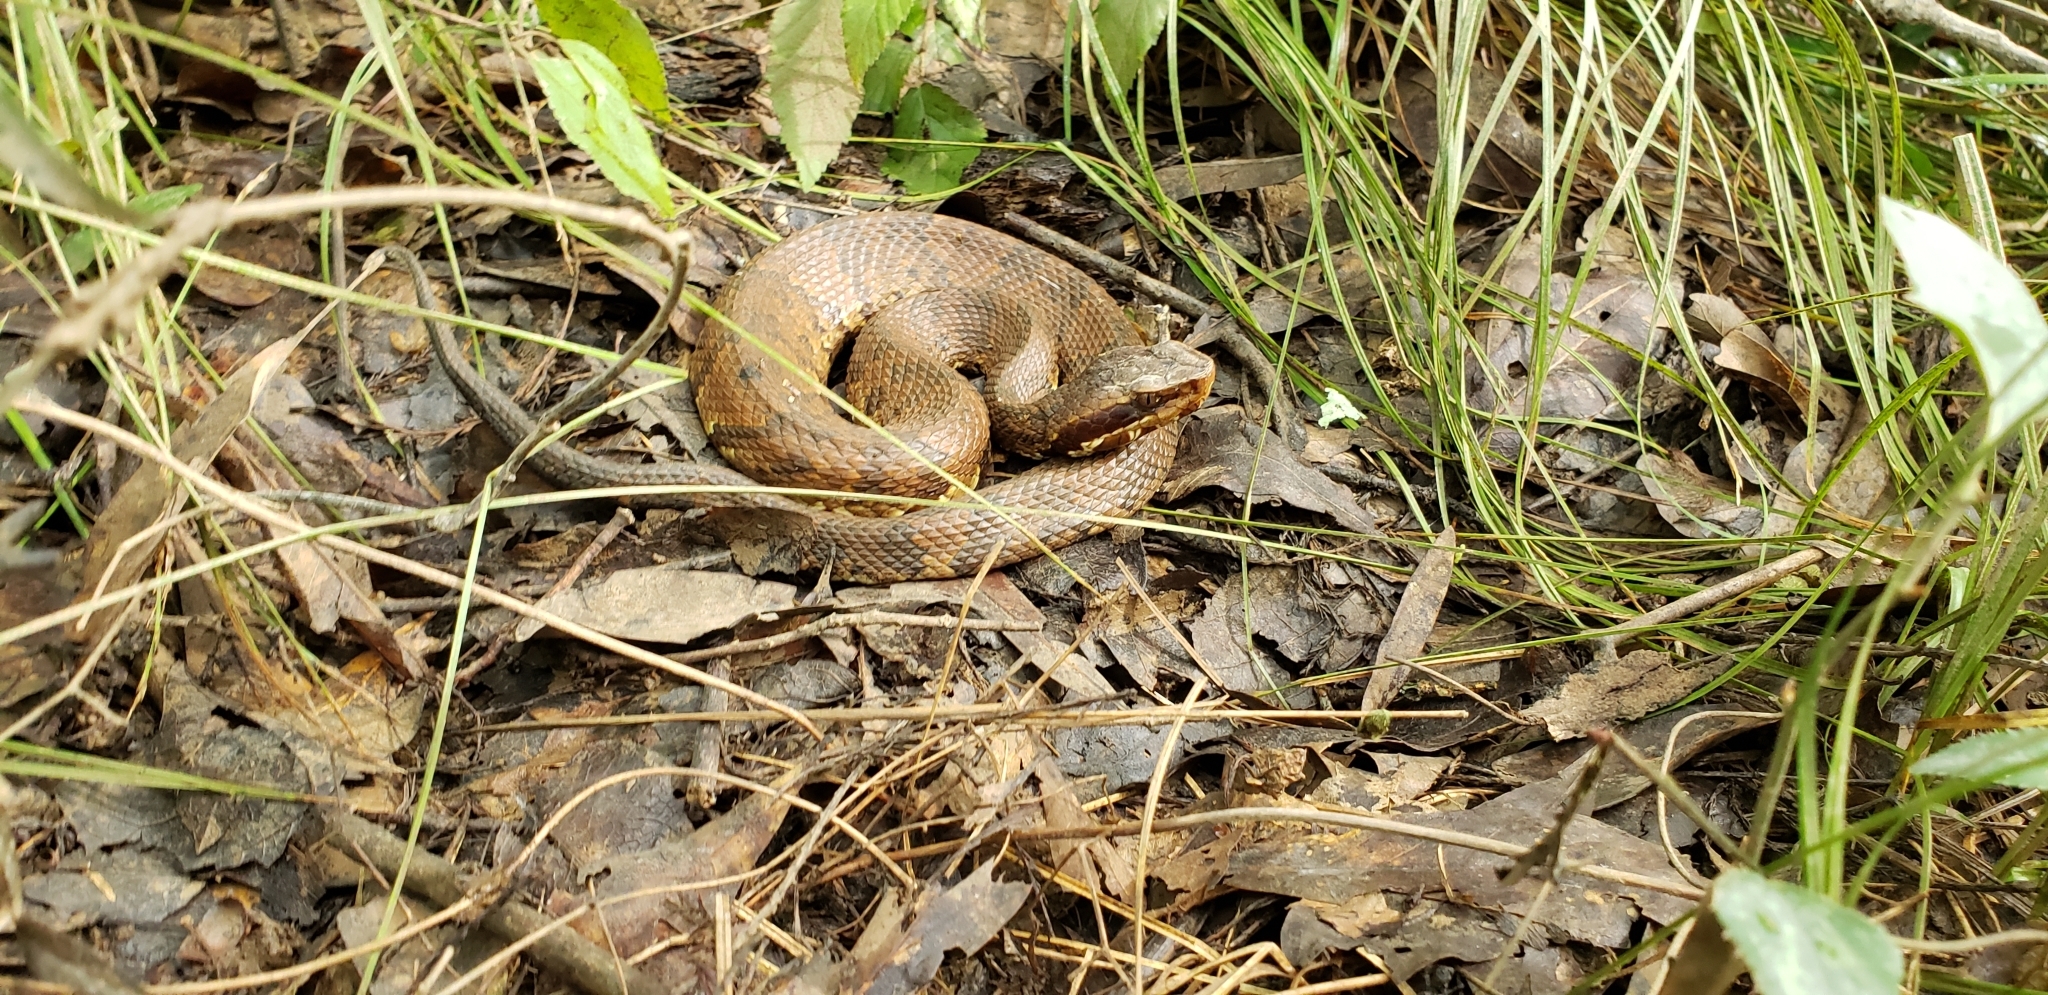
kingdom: Animalia
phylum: Chordata
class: Squamata
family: Viperidae
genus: Agkistrodon
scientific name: Agkistrodon piscivorus
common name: Cottonmouth
